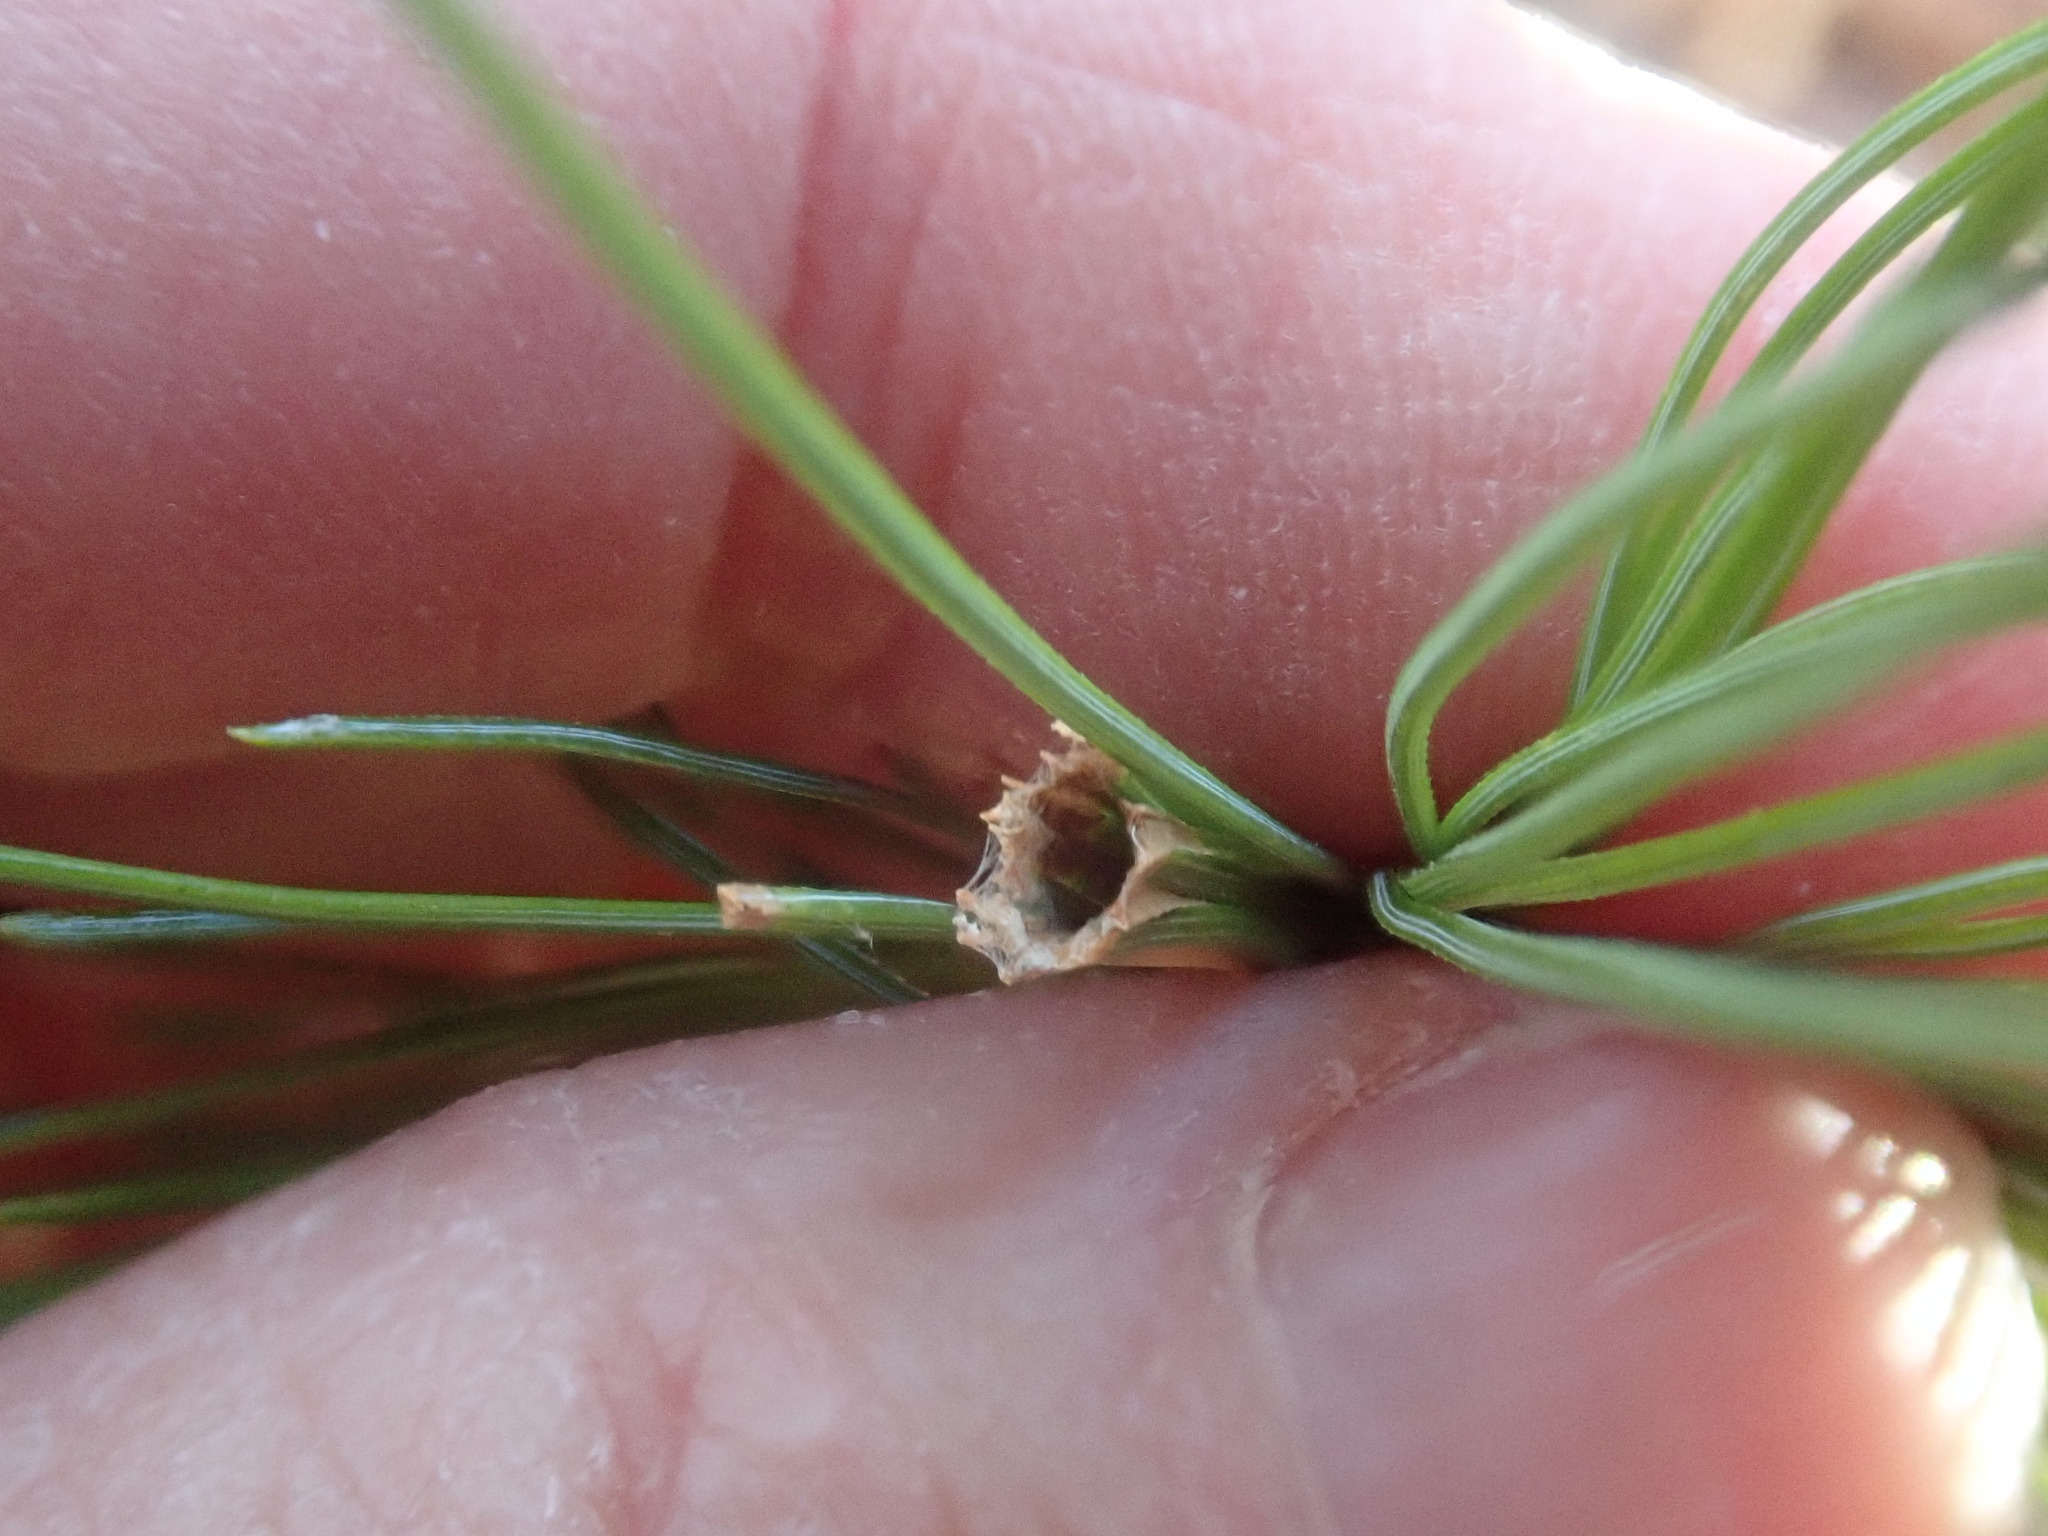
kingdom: Animalia
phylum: Arthropoda
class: Insecta
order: Lepidoptera
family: Tortricidae
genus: Argyrotaenia
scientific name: Argyrotaenia pinatubana
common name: Pine tube moth
